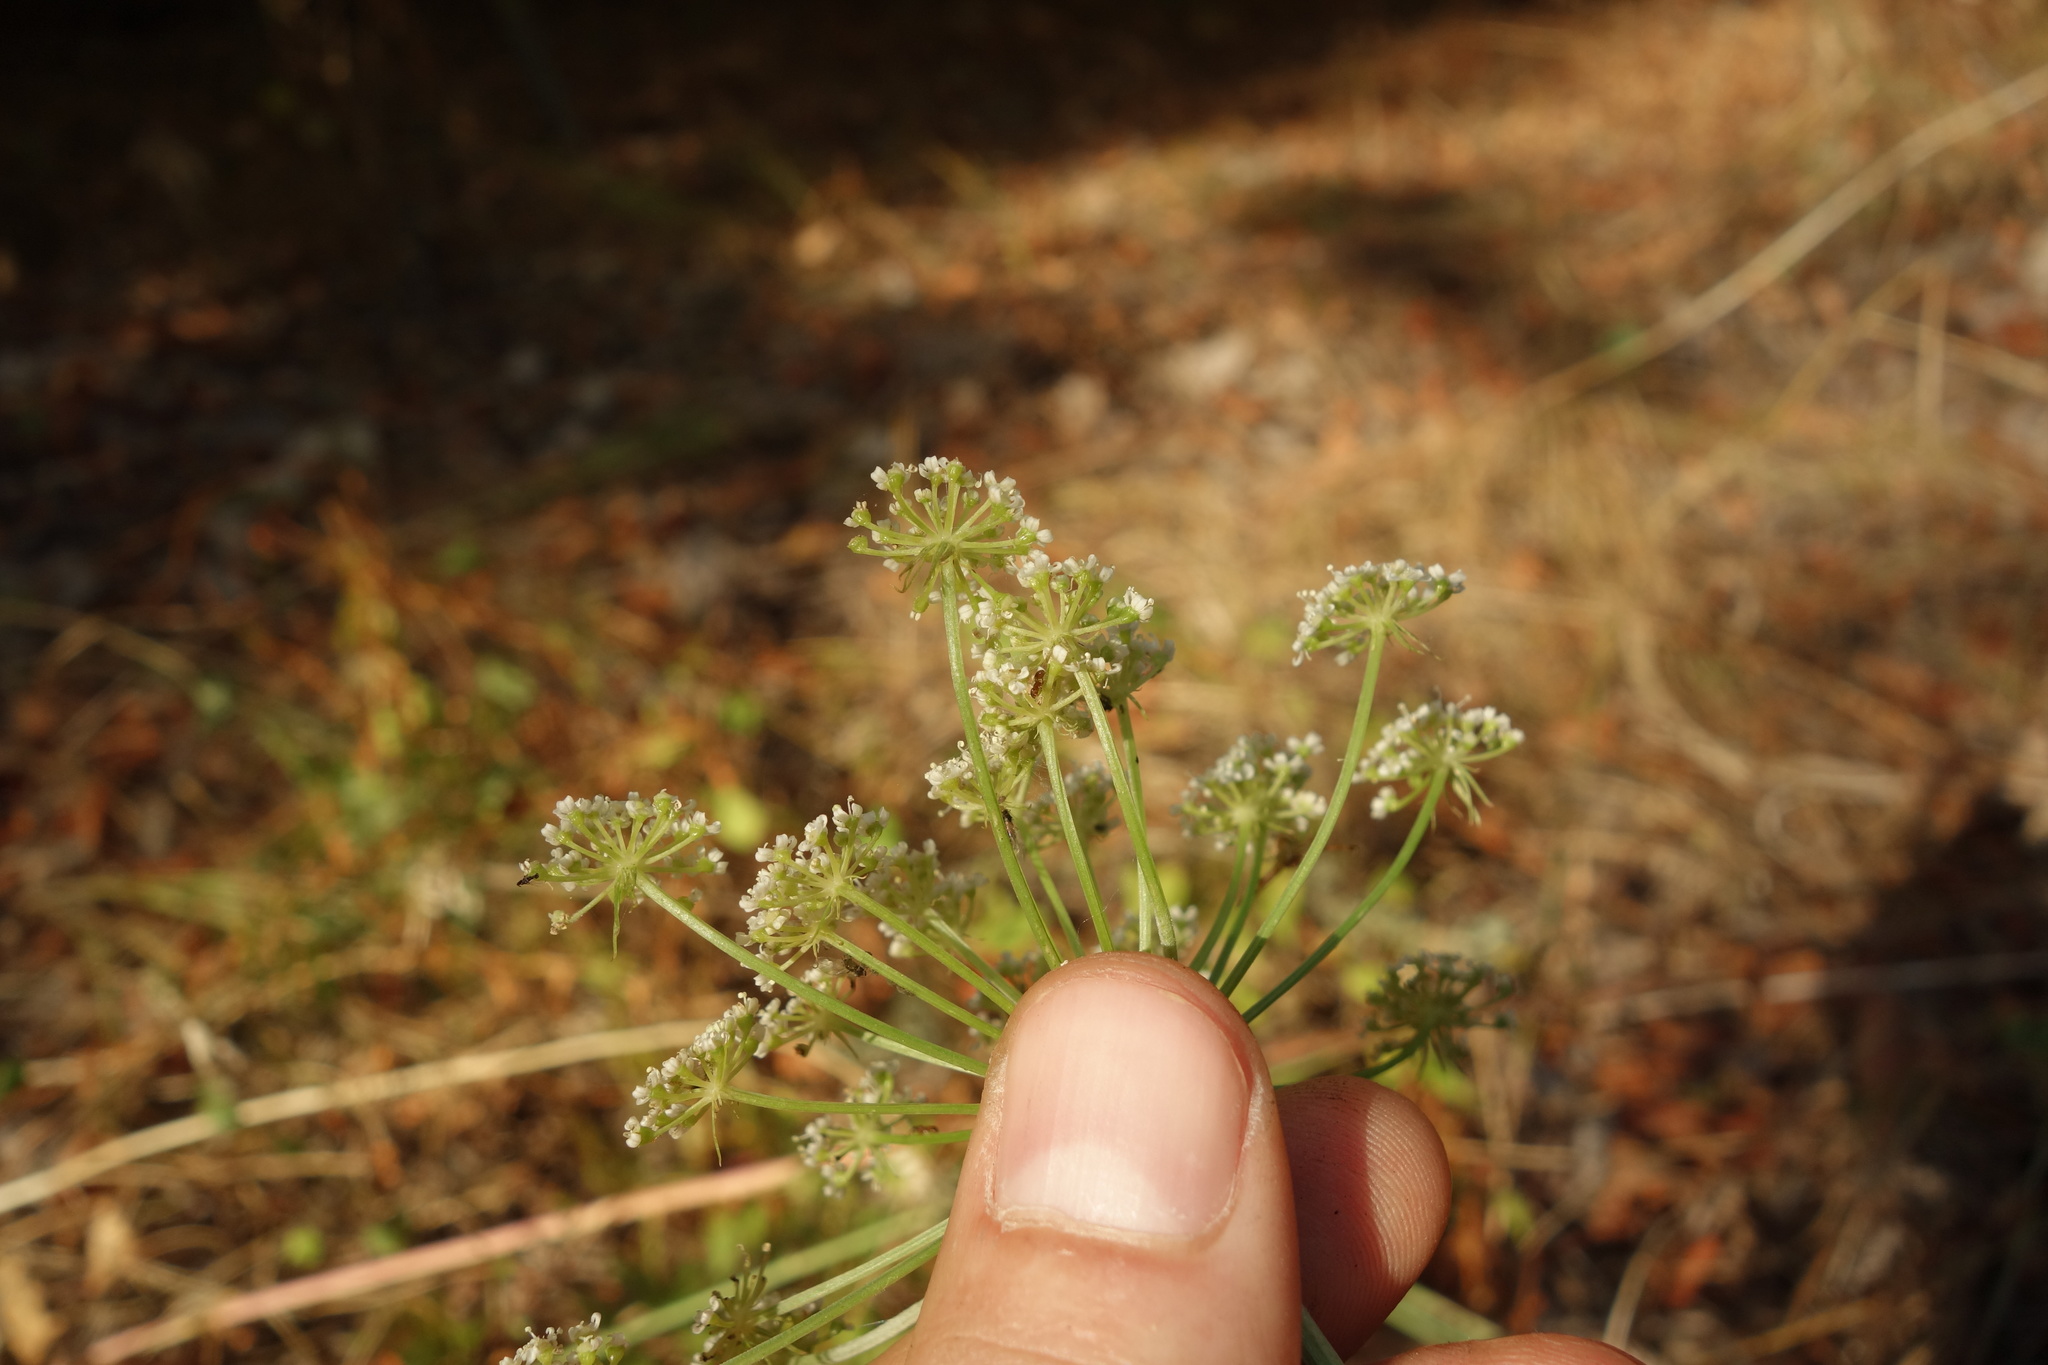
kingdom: Plantae
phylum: Tracheophyta
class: Magnoliopsida
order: Apiales
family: Apiaceae
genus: Oreoselinum
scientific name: Oreoselinum nigrum
